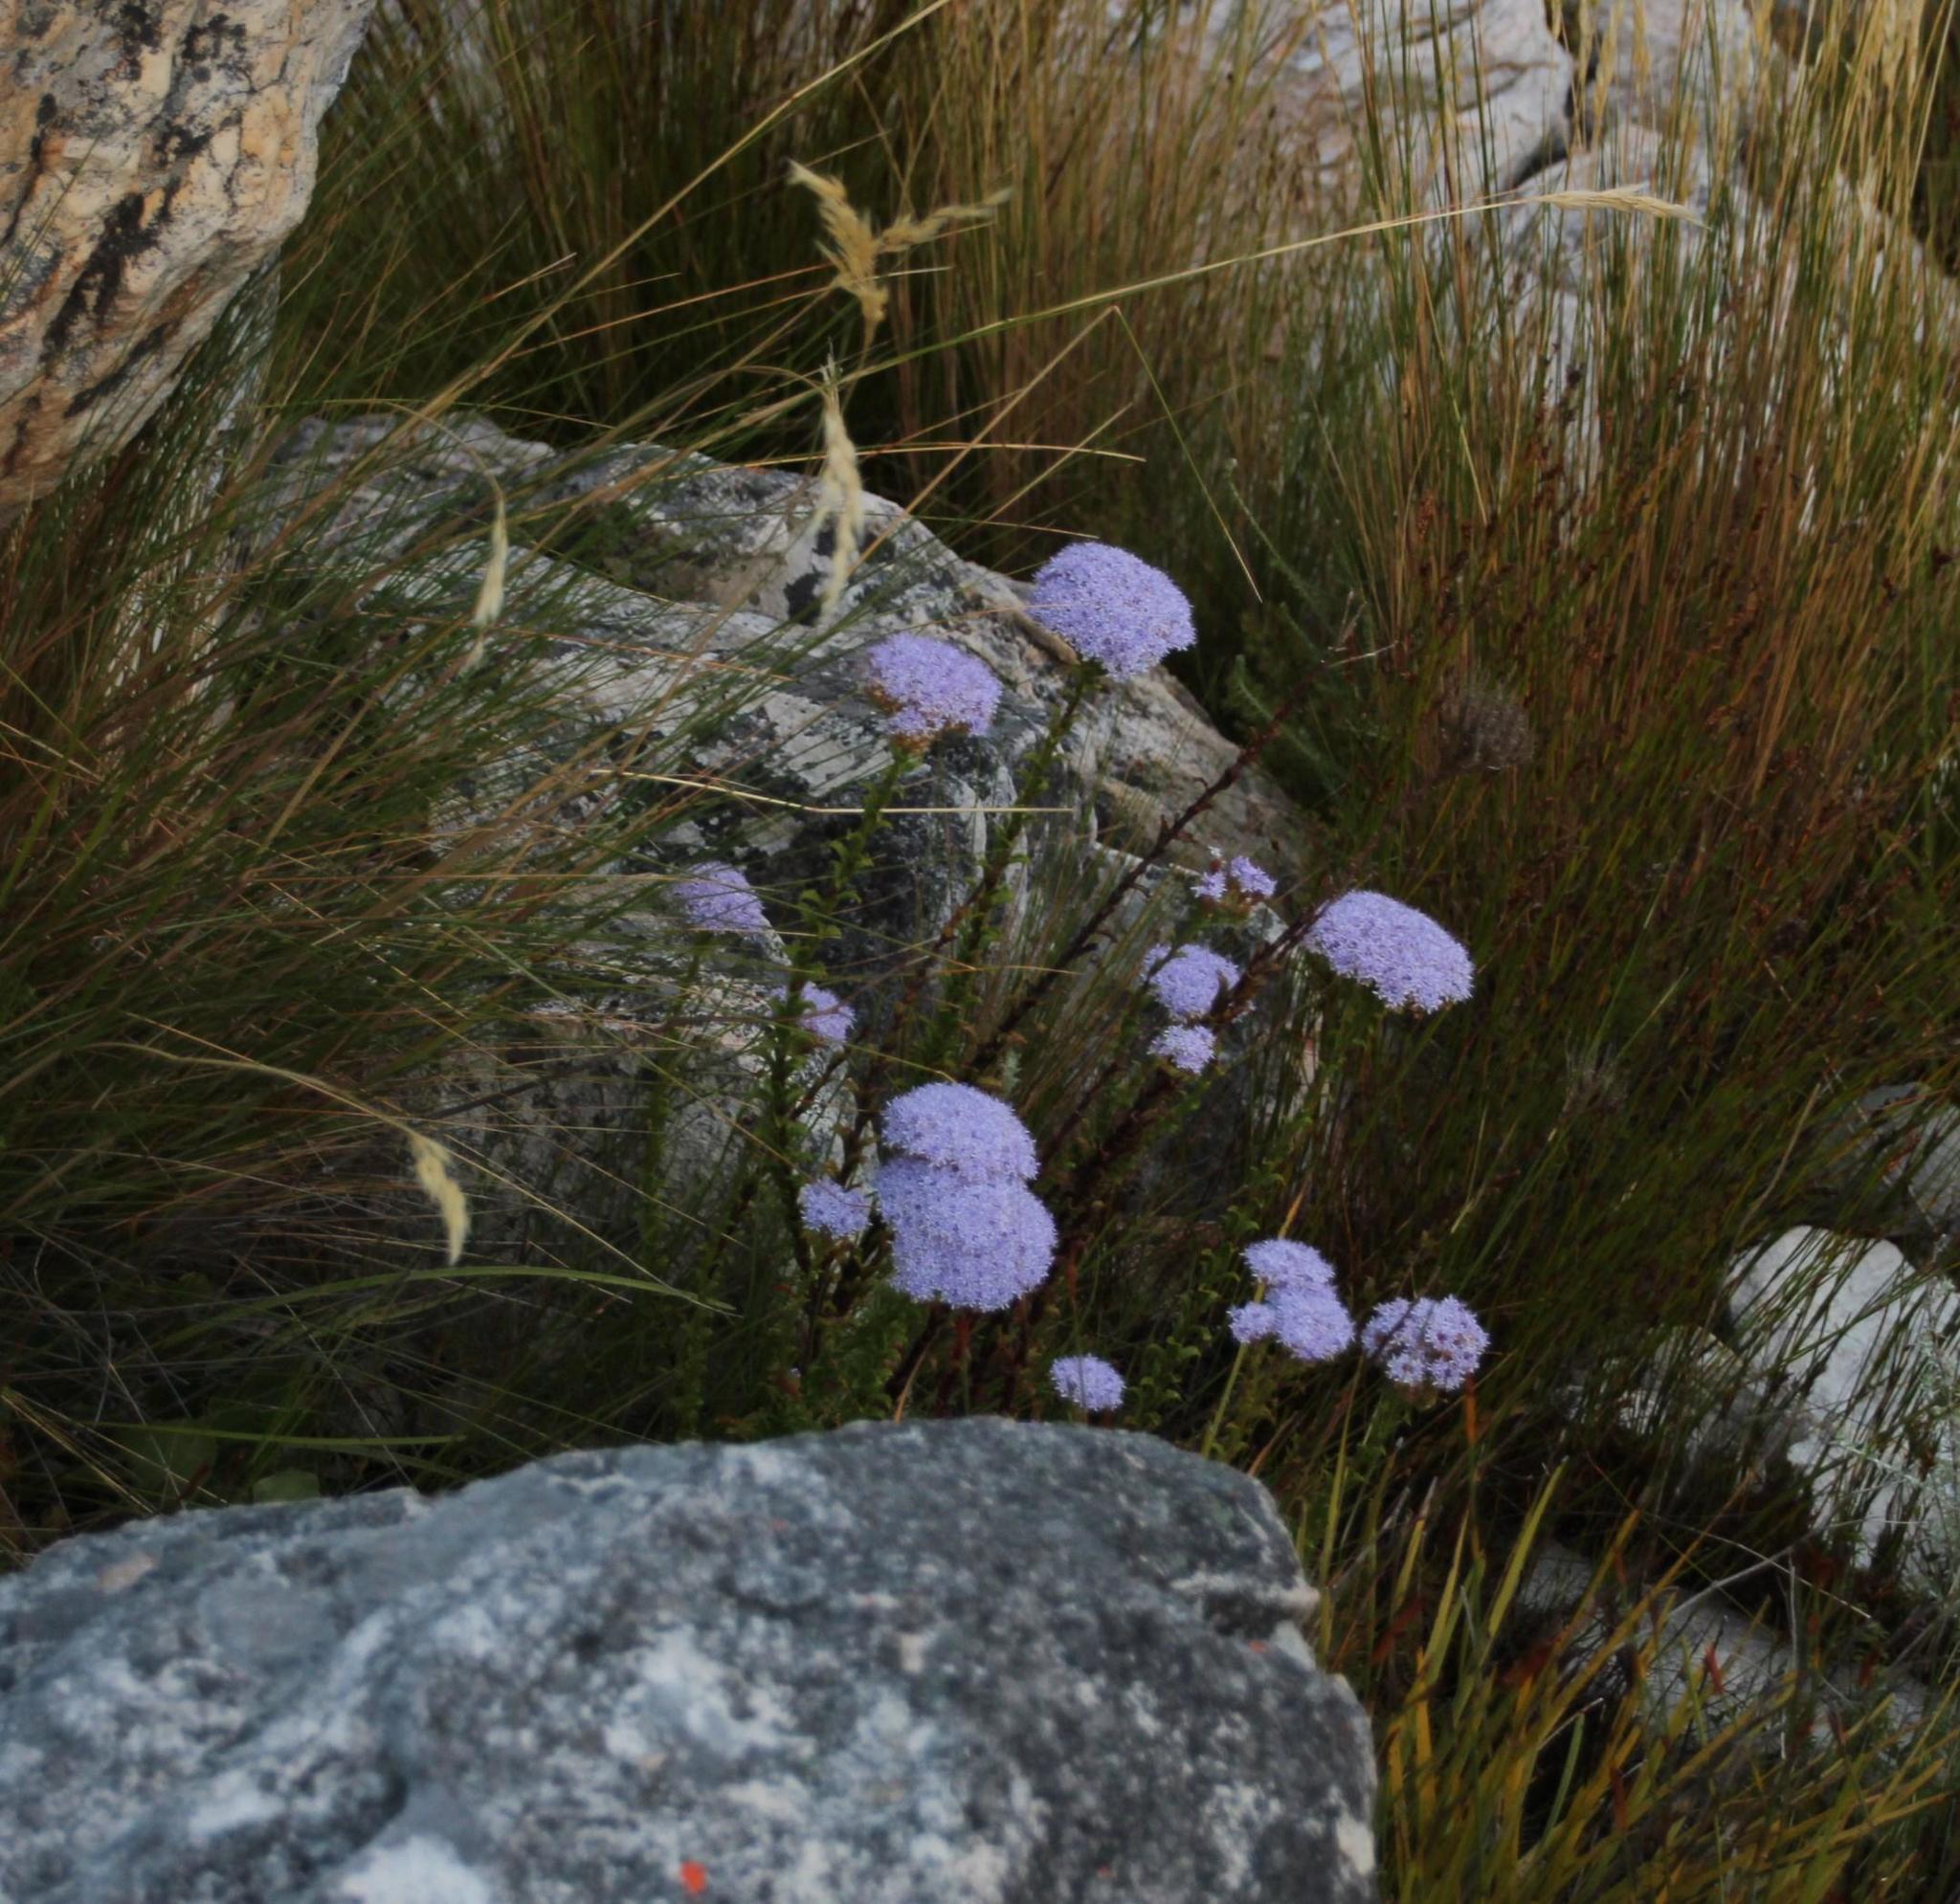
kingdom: Plantae
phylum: Tracheophyta
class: Magnoliopsida
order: Lamiales
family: Scrophulariaceae
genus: Pseudoselago
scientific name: Pseudoselago serrata
